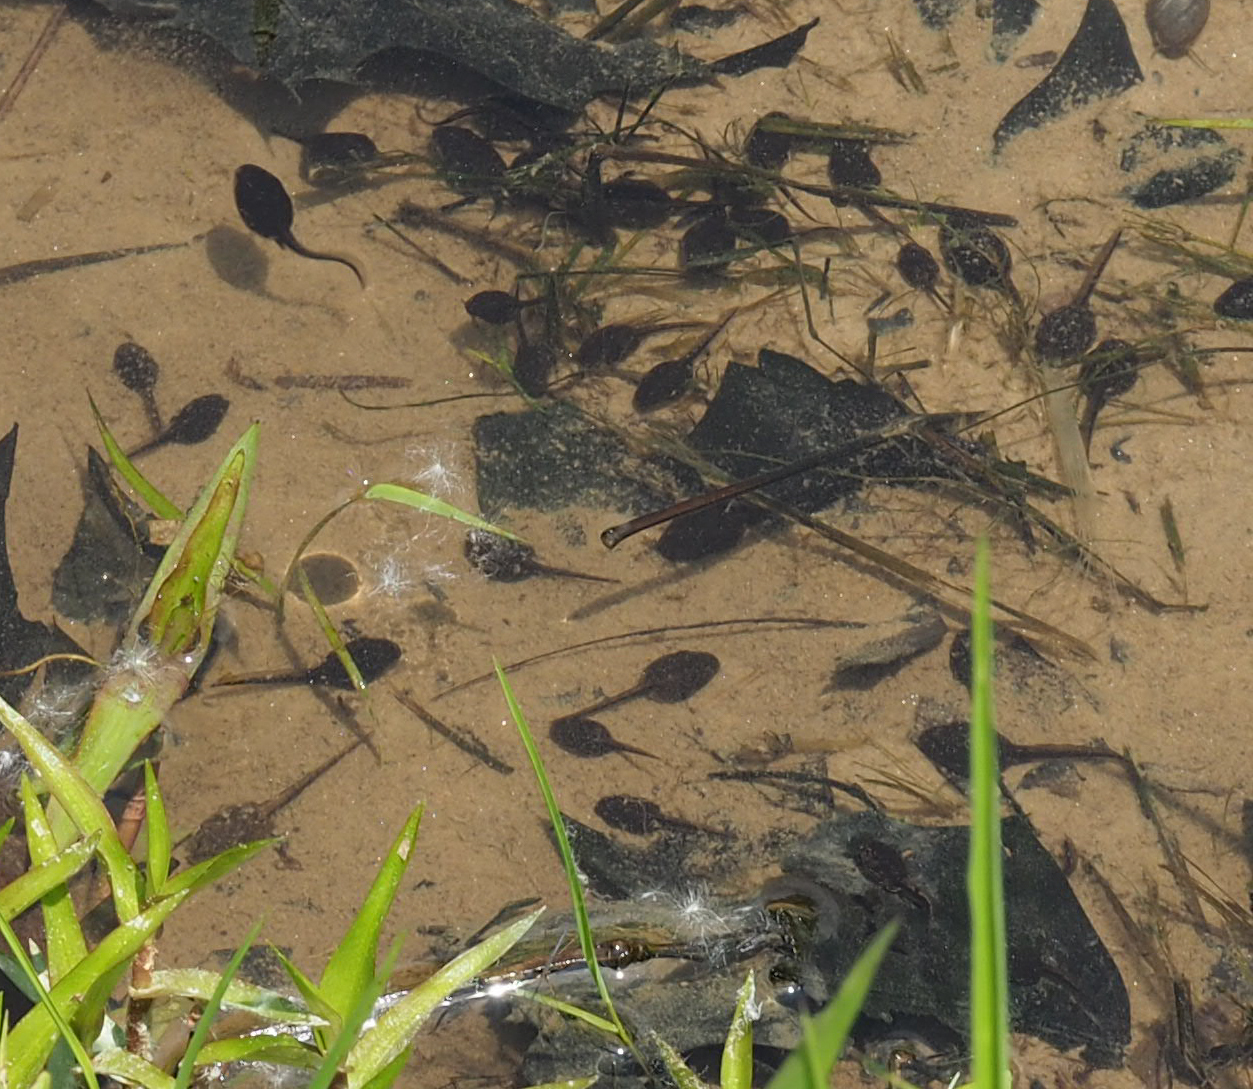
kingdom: Animalia
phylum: Chordata
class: Amphibia
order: Anura
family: Bufonidae
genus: Anaxyrus
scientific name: Anaxyrus americanus
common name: American toad
